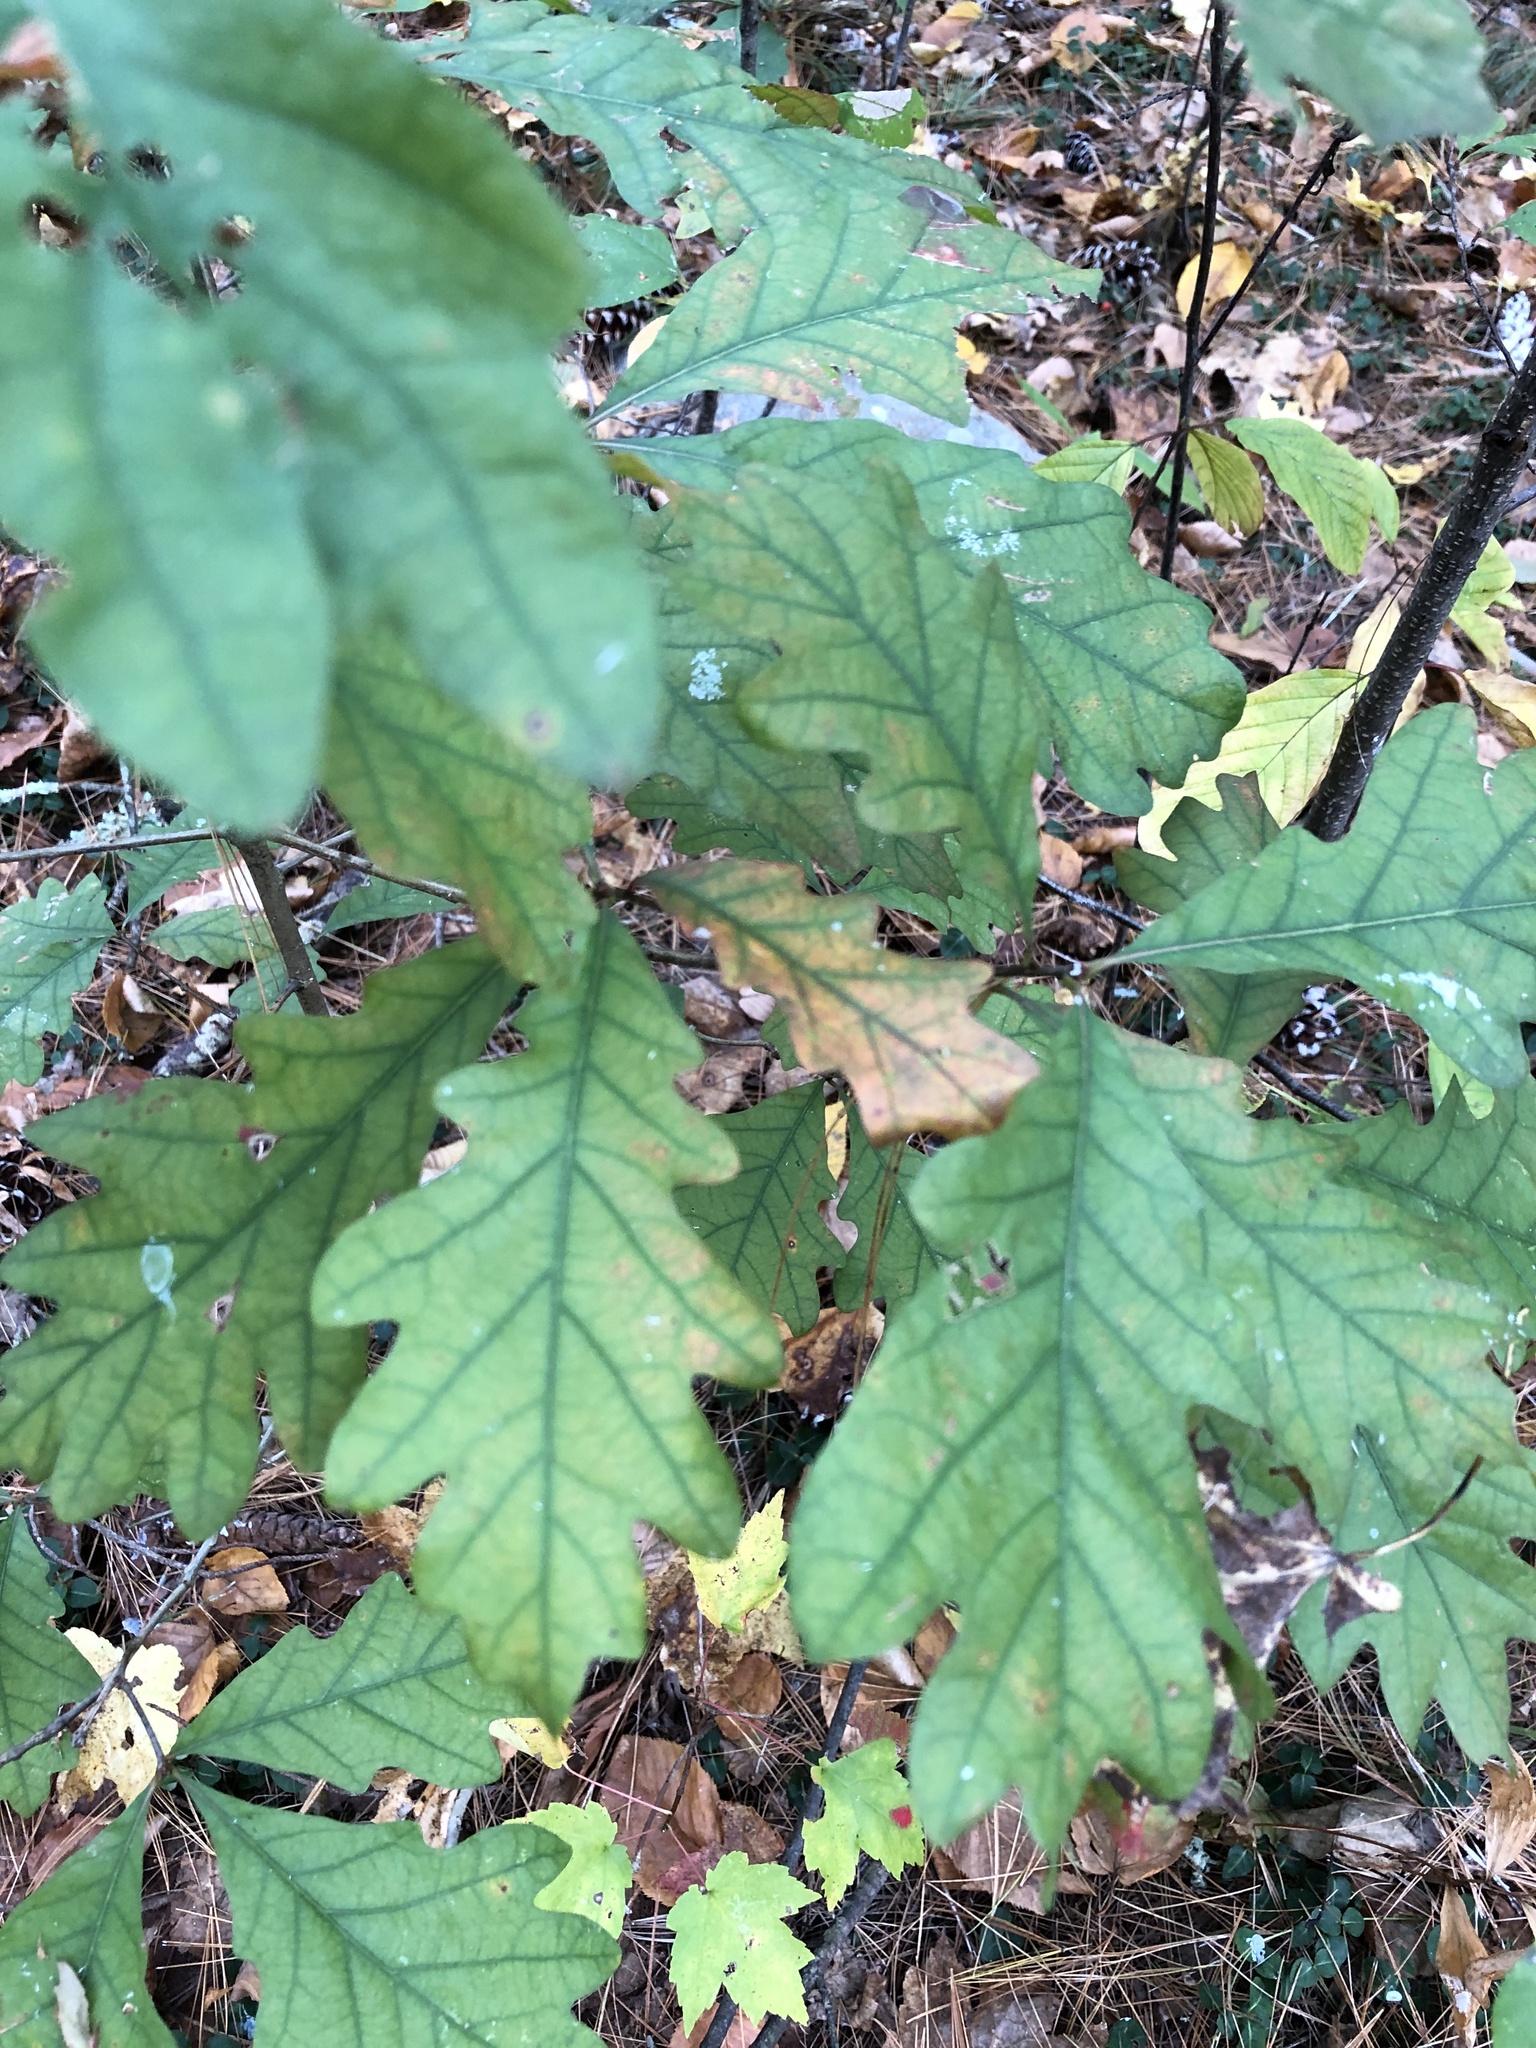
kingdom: Plantae
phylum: Tracheophyta
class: Magnoliopsida
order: Fagales
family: Fagaceae
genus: Quercus
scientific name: Quercus alba
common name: White oak
